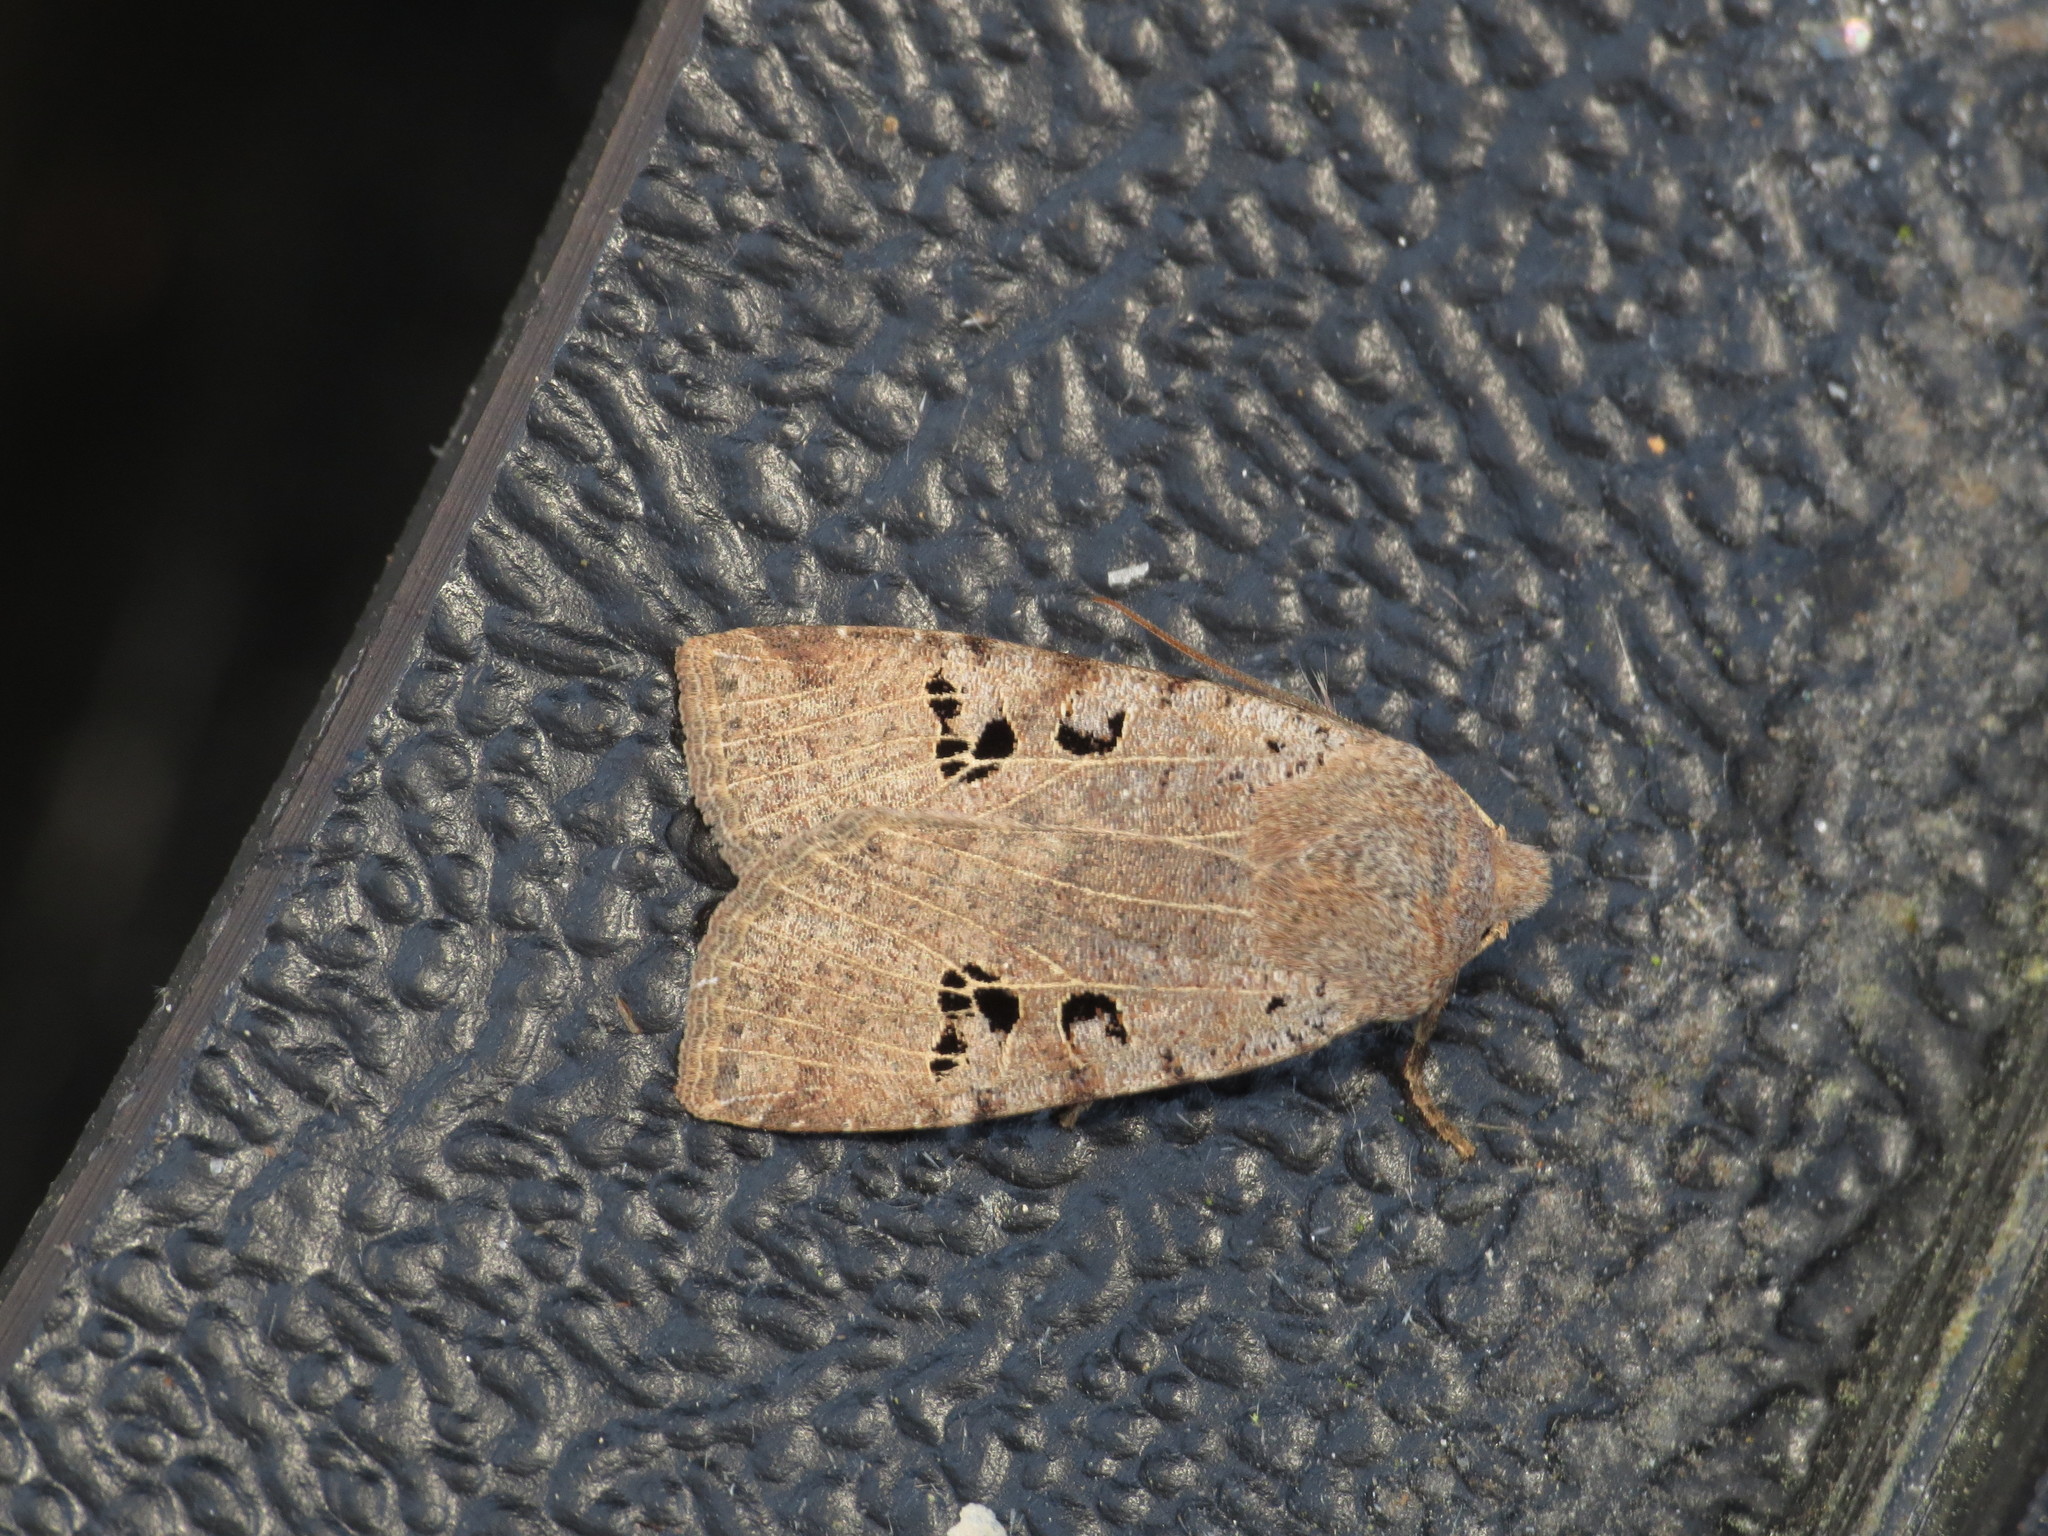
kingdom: Animalia
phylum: Arthropoda
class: Insecta
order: Lepidoptera
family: Noctuidae
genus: Conistra
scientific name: Conistra rubiginosa
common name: Black-spotted chestnut
